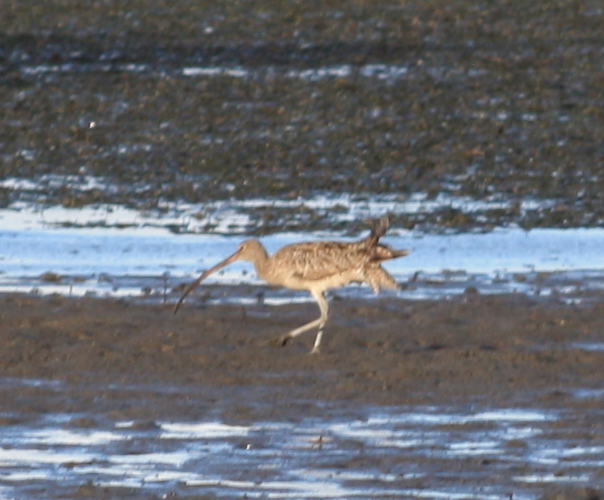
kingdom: Animalia
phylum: Chordata
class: Aves
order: Charadriiformes
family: Scolopacidae
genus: Numenius
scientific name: Numenius madagascariensis
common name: Far eastern curlew
